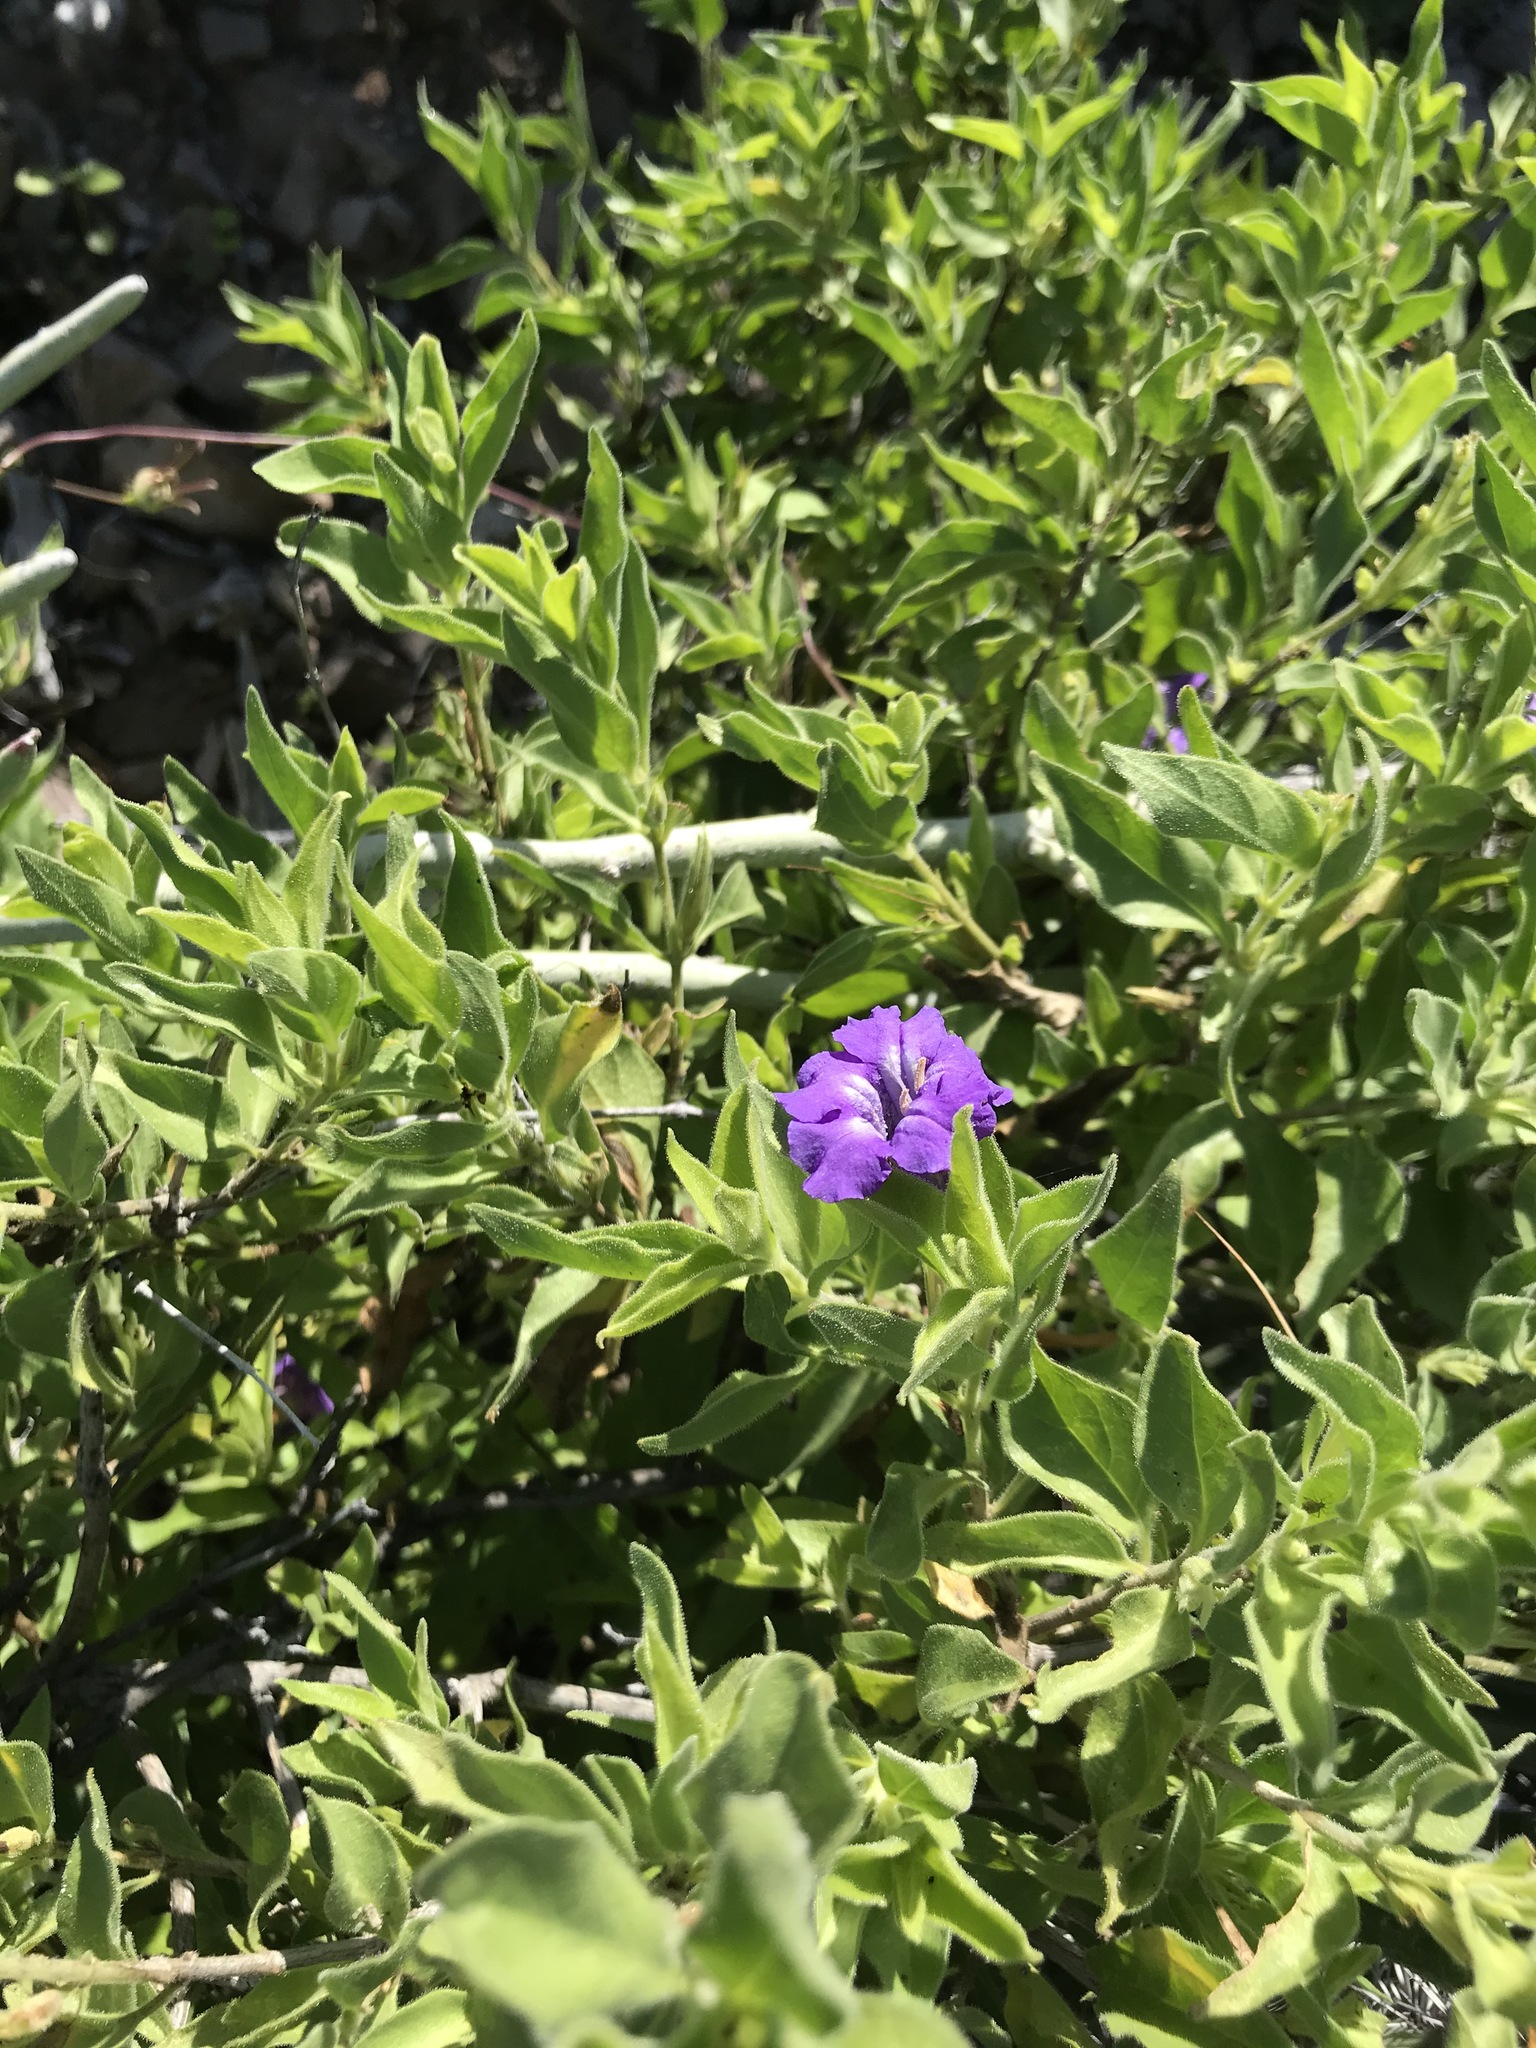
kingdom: Plantae
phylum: Tracheophyta
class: Magnoliopsida
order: Lamiales
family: Acanthaceae
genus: Ruellia
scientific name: Ruellia californica
